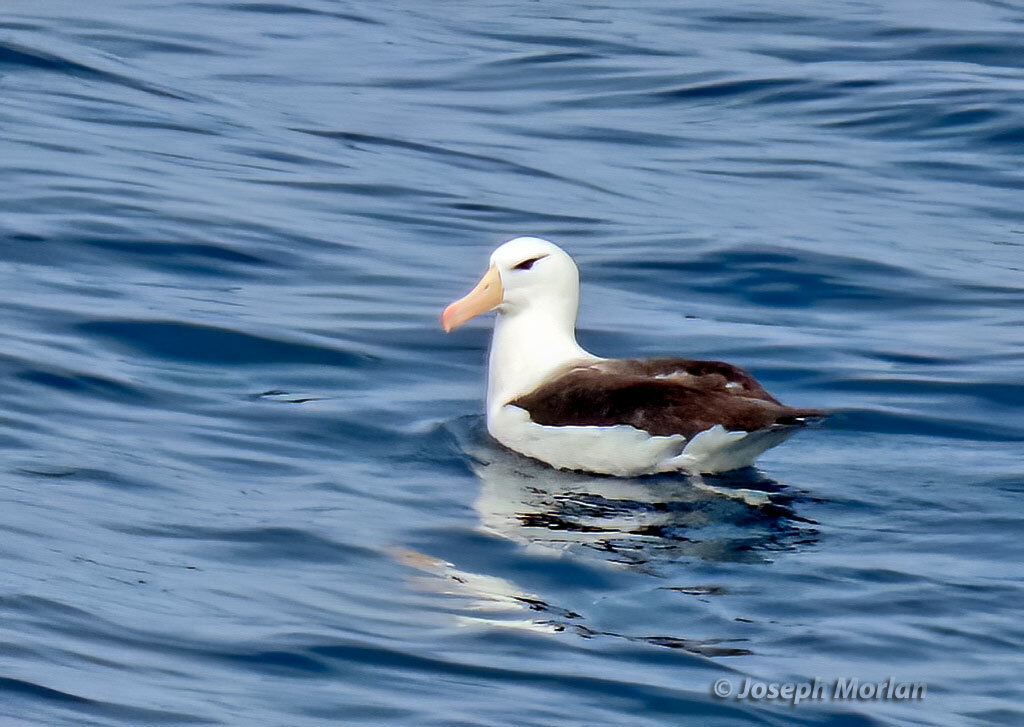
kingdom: Animalia
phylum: Chordata
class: Aves
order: Procellariiformes
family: Diomedeidae
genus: Thalassarche
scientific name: Thalassarche melanophris
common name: Black-browed albatross
